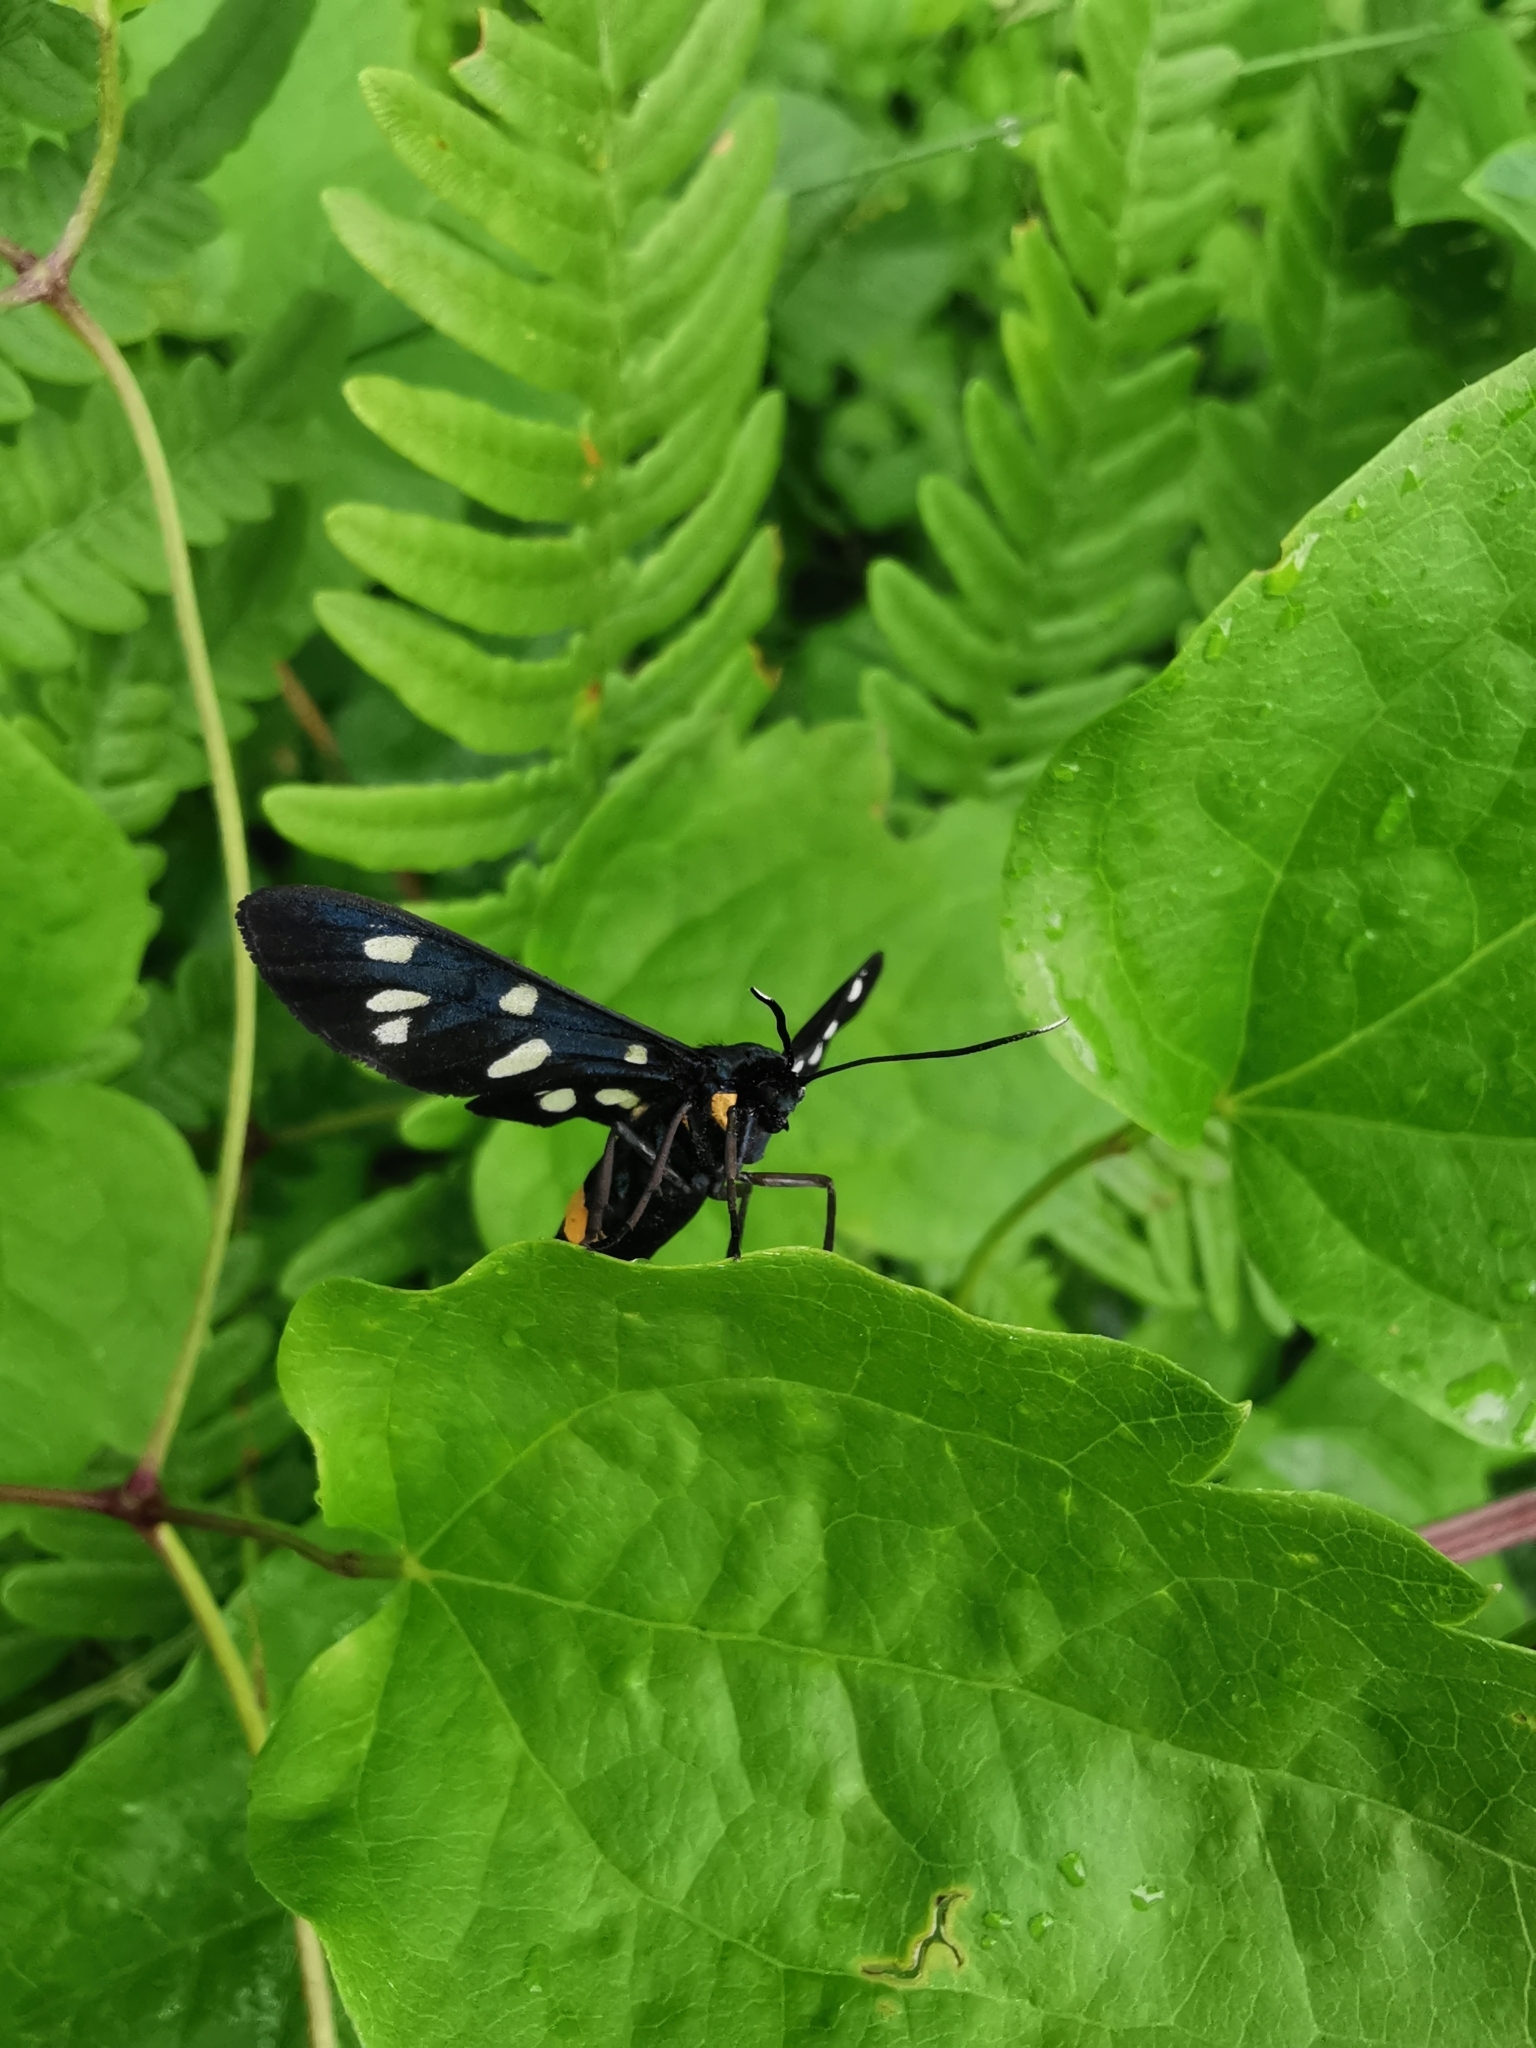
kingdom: Animalia
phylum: Arthropoda
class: Insecta
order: Lepidoptera
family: Erebidae
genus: Amata
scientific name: Amata phegea
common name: Nine-spotted
